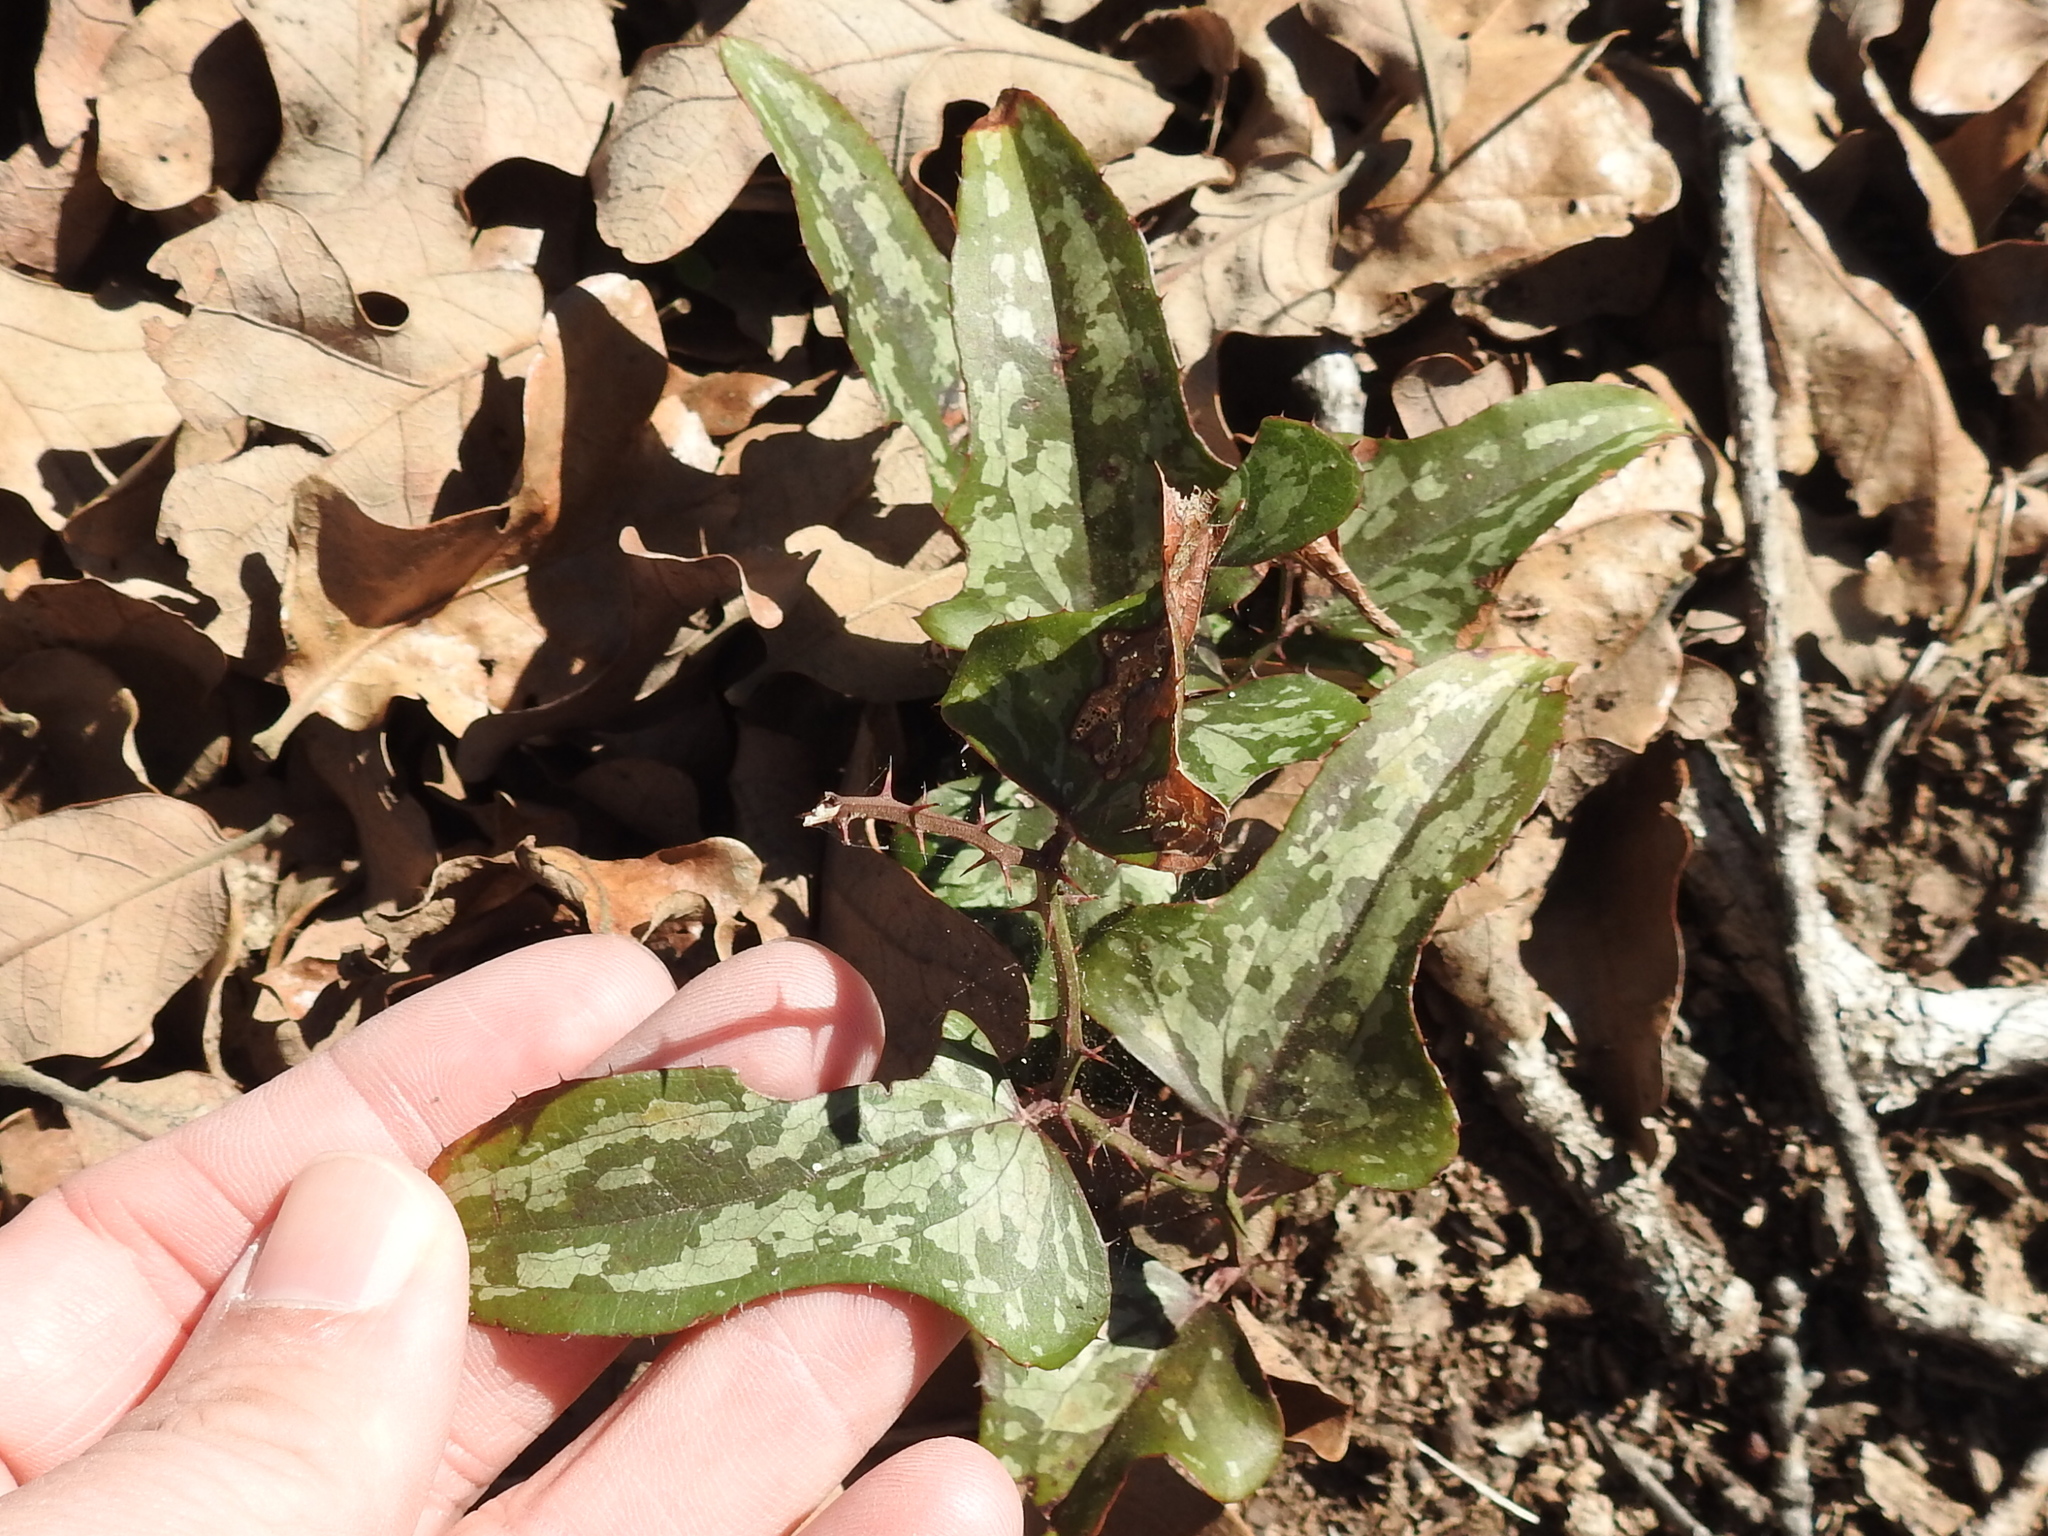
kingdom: Plantae
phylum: Tracheophyta
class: Liliopsida
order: Liliales
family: Smilacaceae
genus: Smilax
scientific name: Smilax bona-nox
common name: Catbrier
